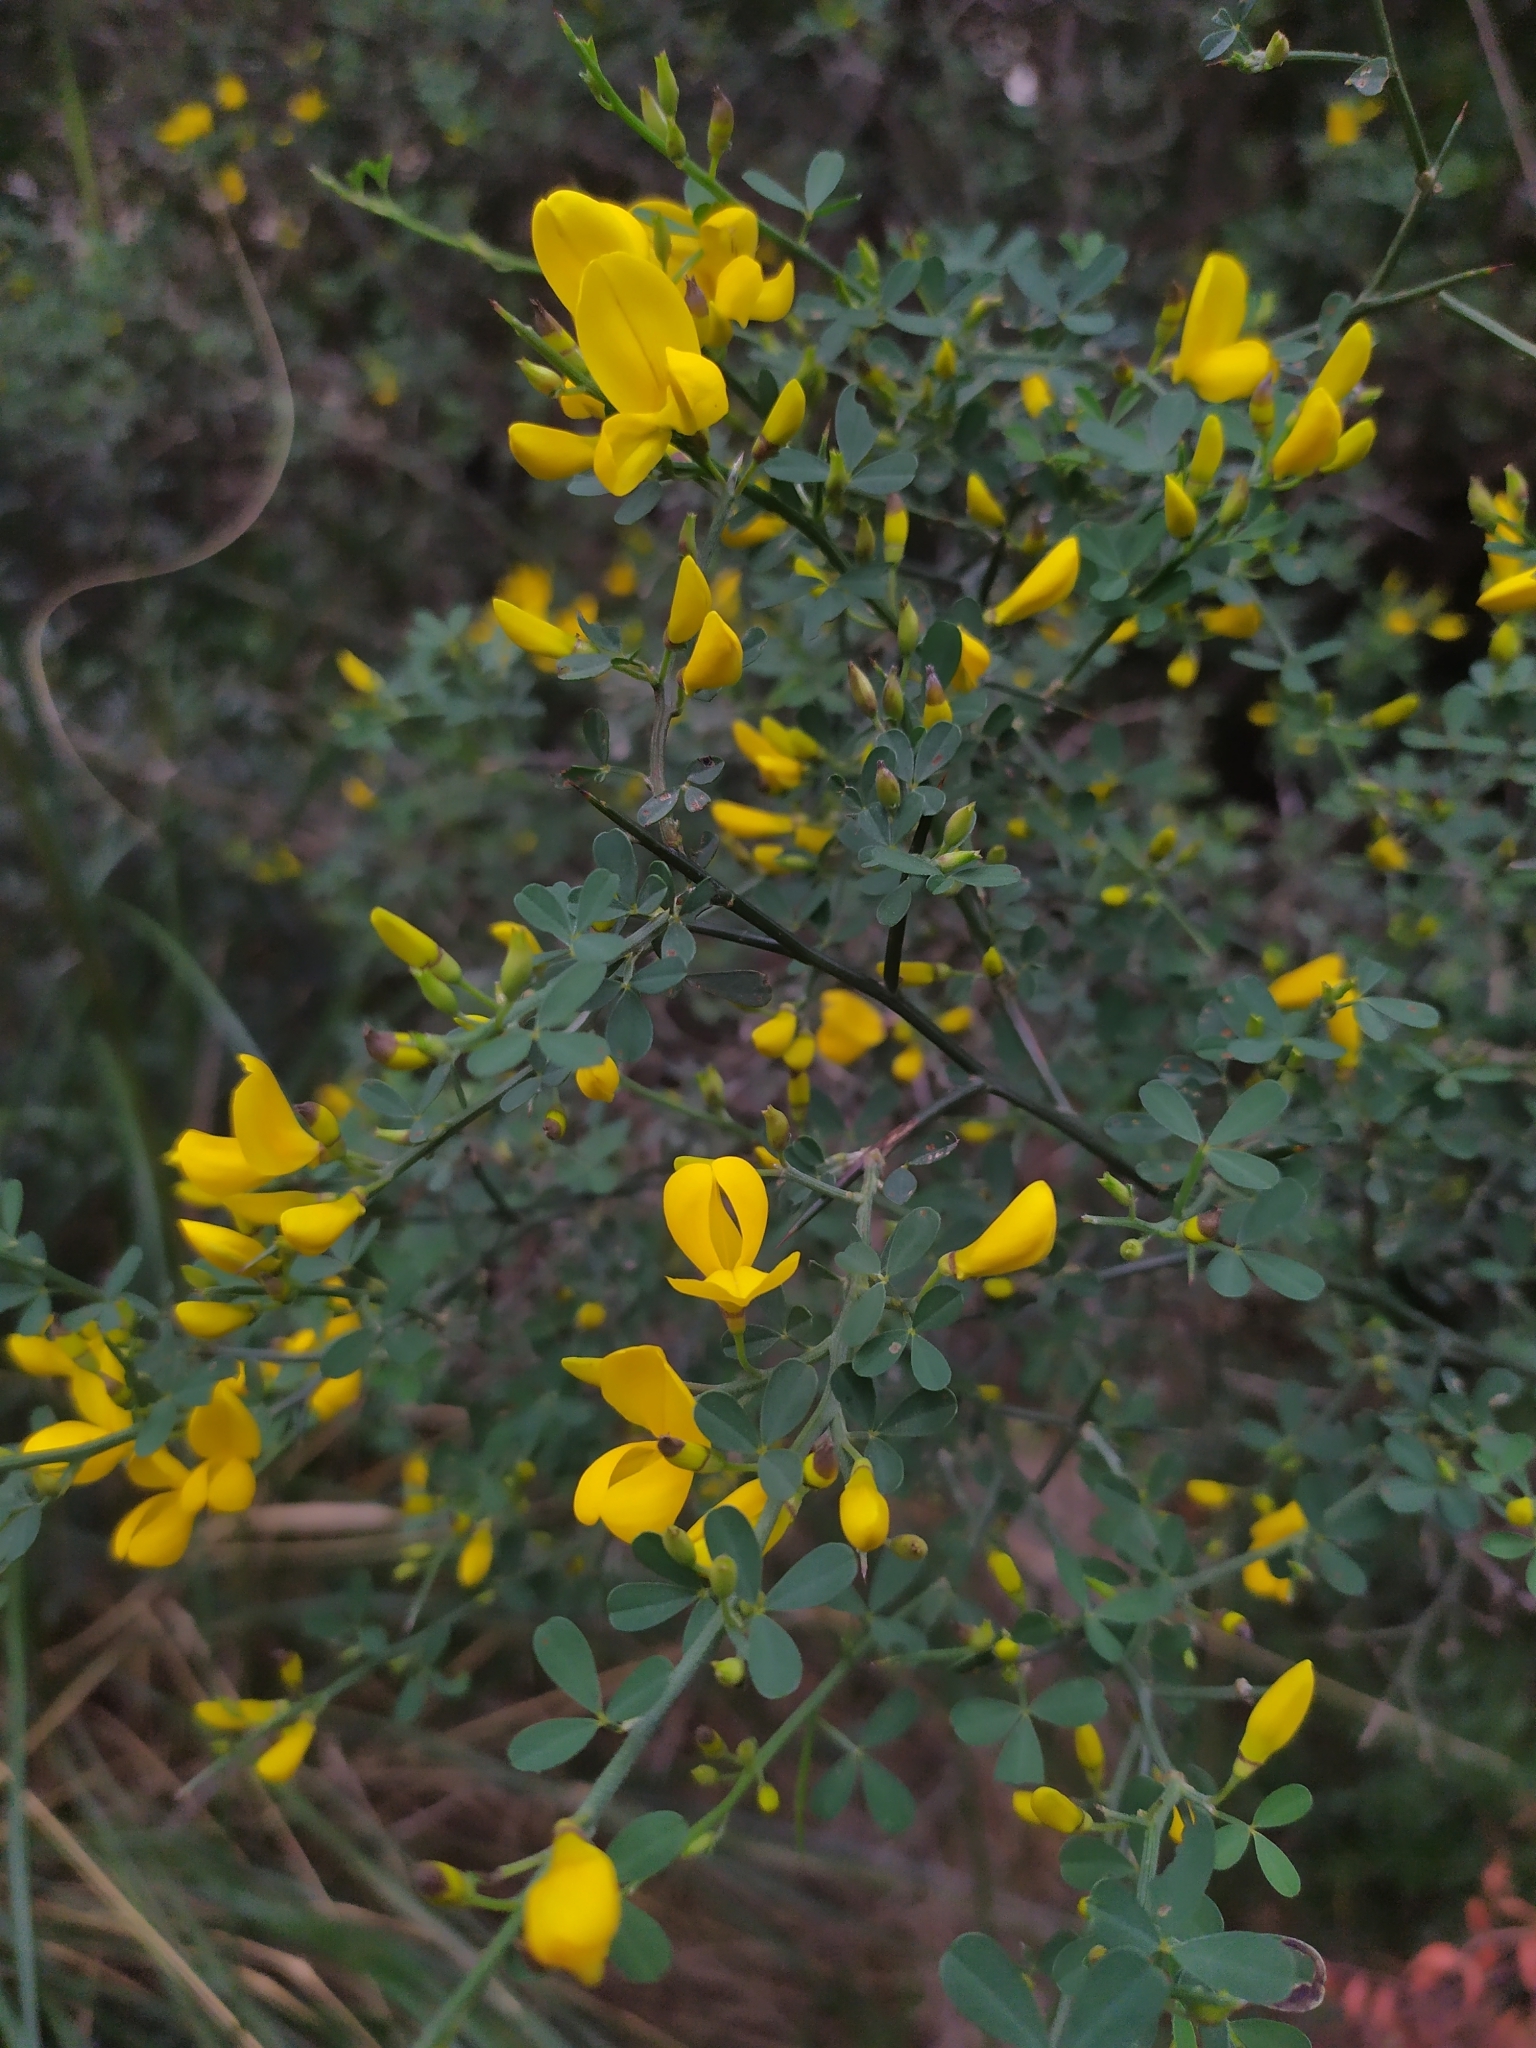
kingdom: Plantae
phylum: Tracheophyta
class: Magnoliopsida
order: Fabales
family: Fabaceae
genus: Calicotome
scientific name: Calicotome spinosa
